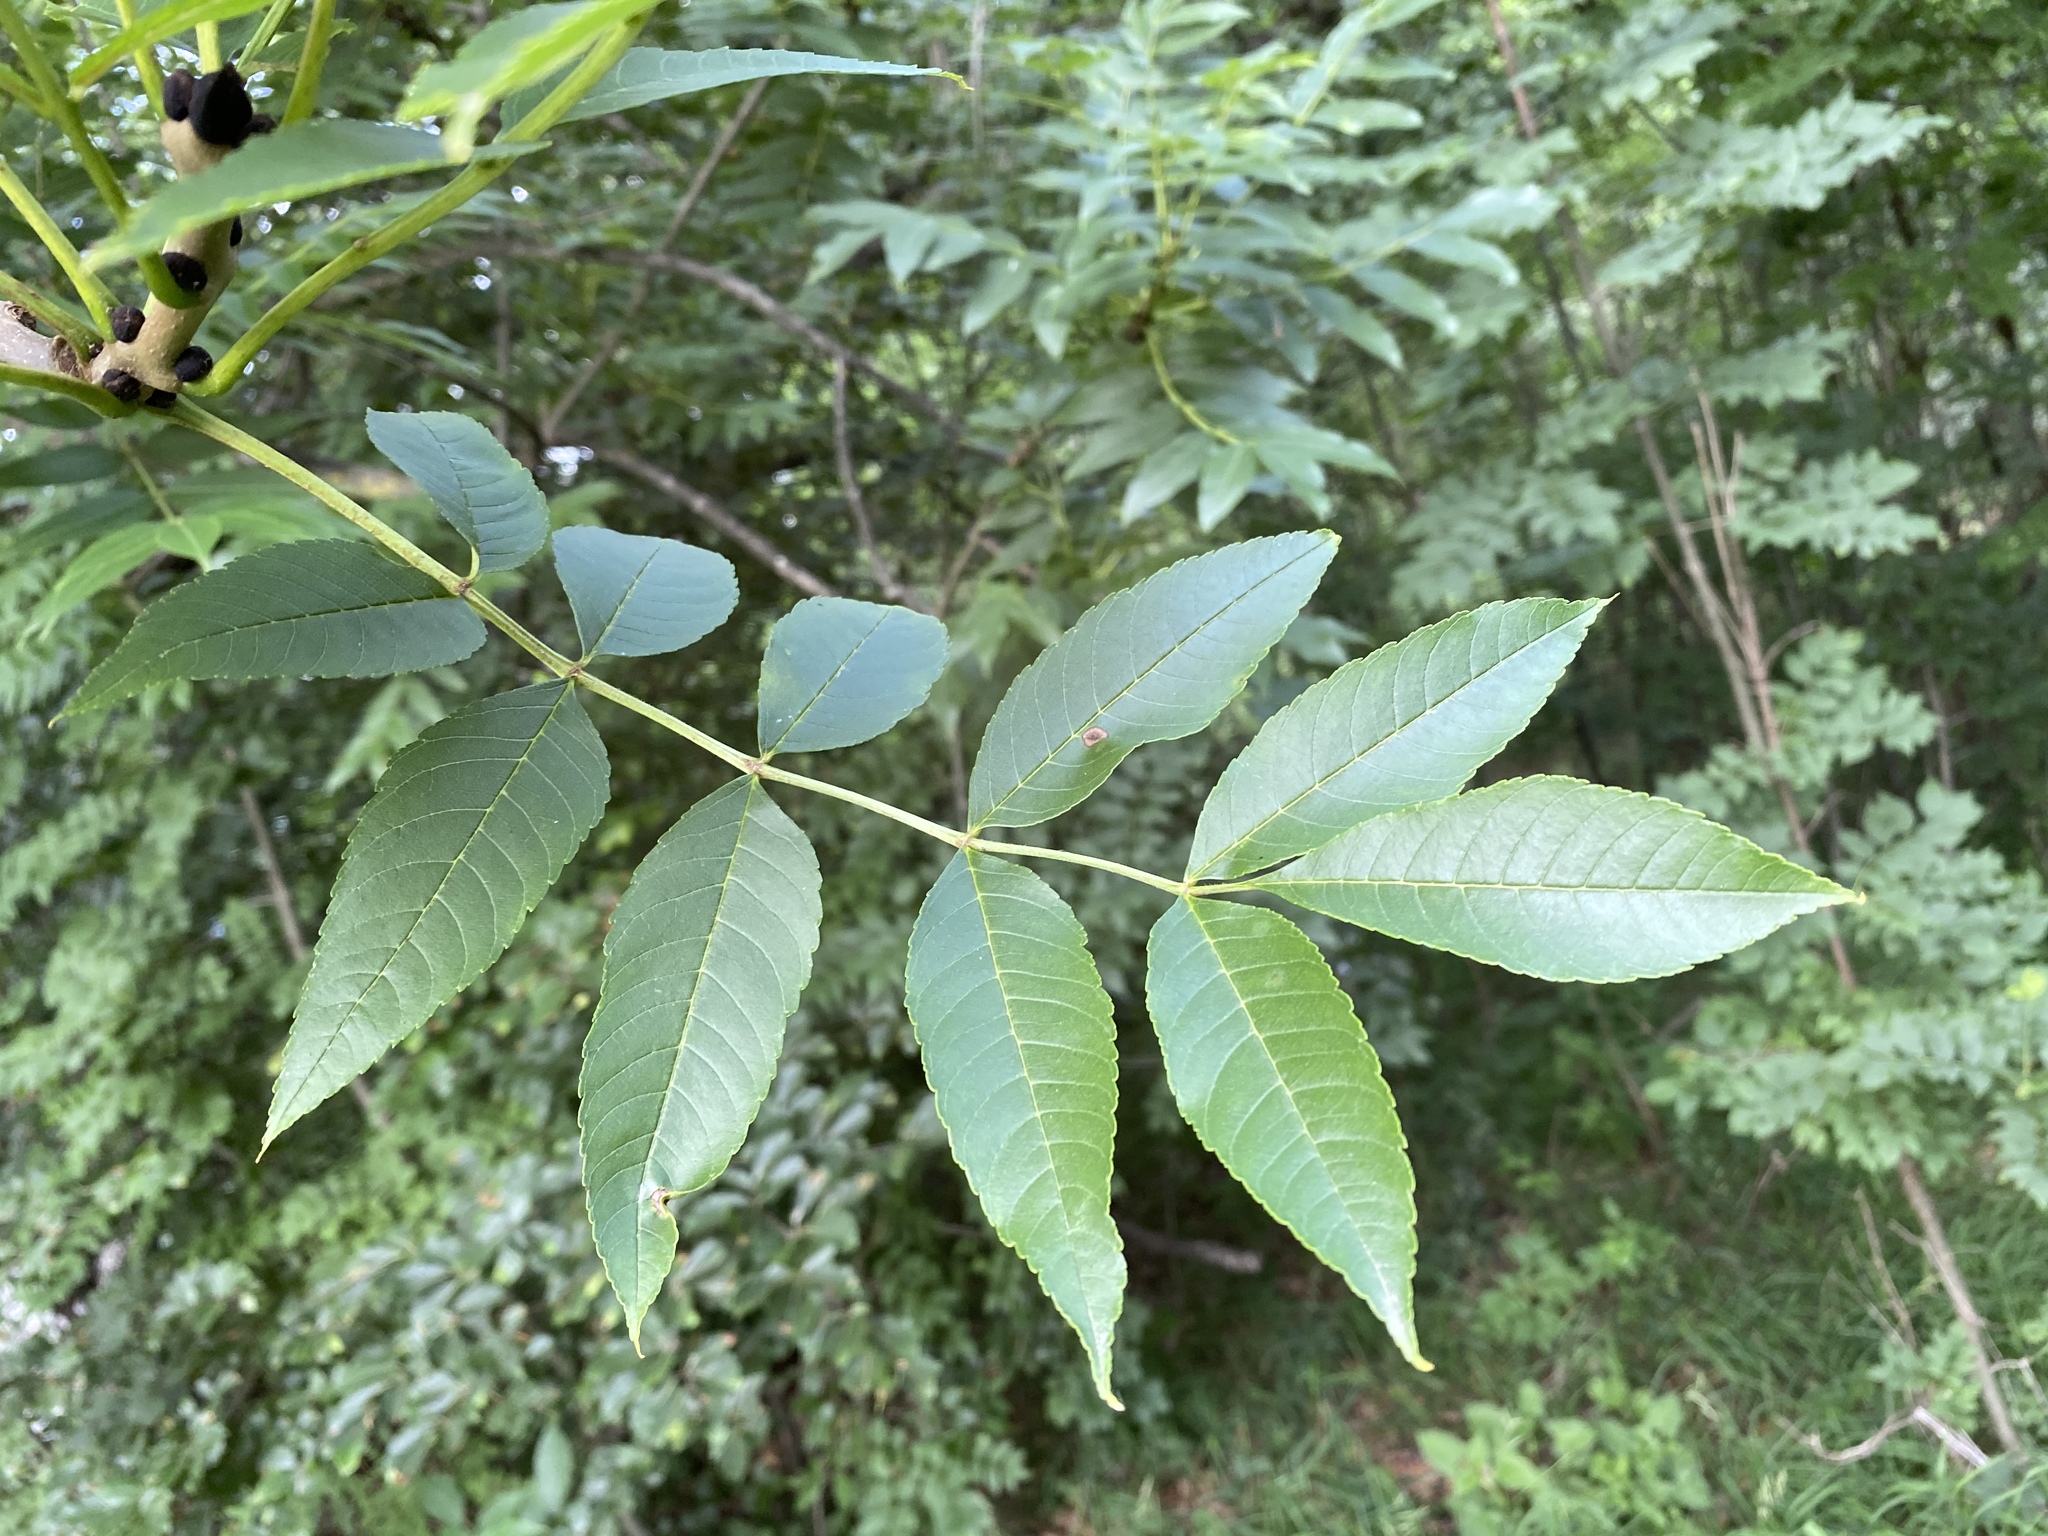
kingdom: Plantae
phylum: Tracheophyta
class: Magnoliopsida
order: Lamiales
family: Oleaceae
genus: Fraxinus
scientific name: Fraxinus excelsior
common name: European ash
